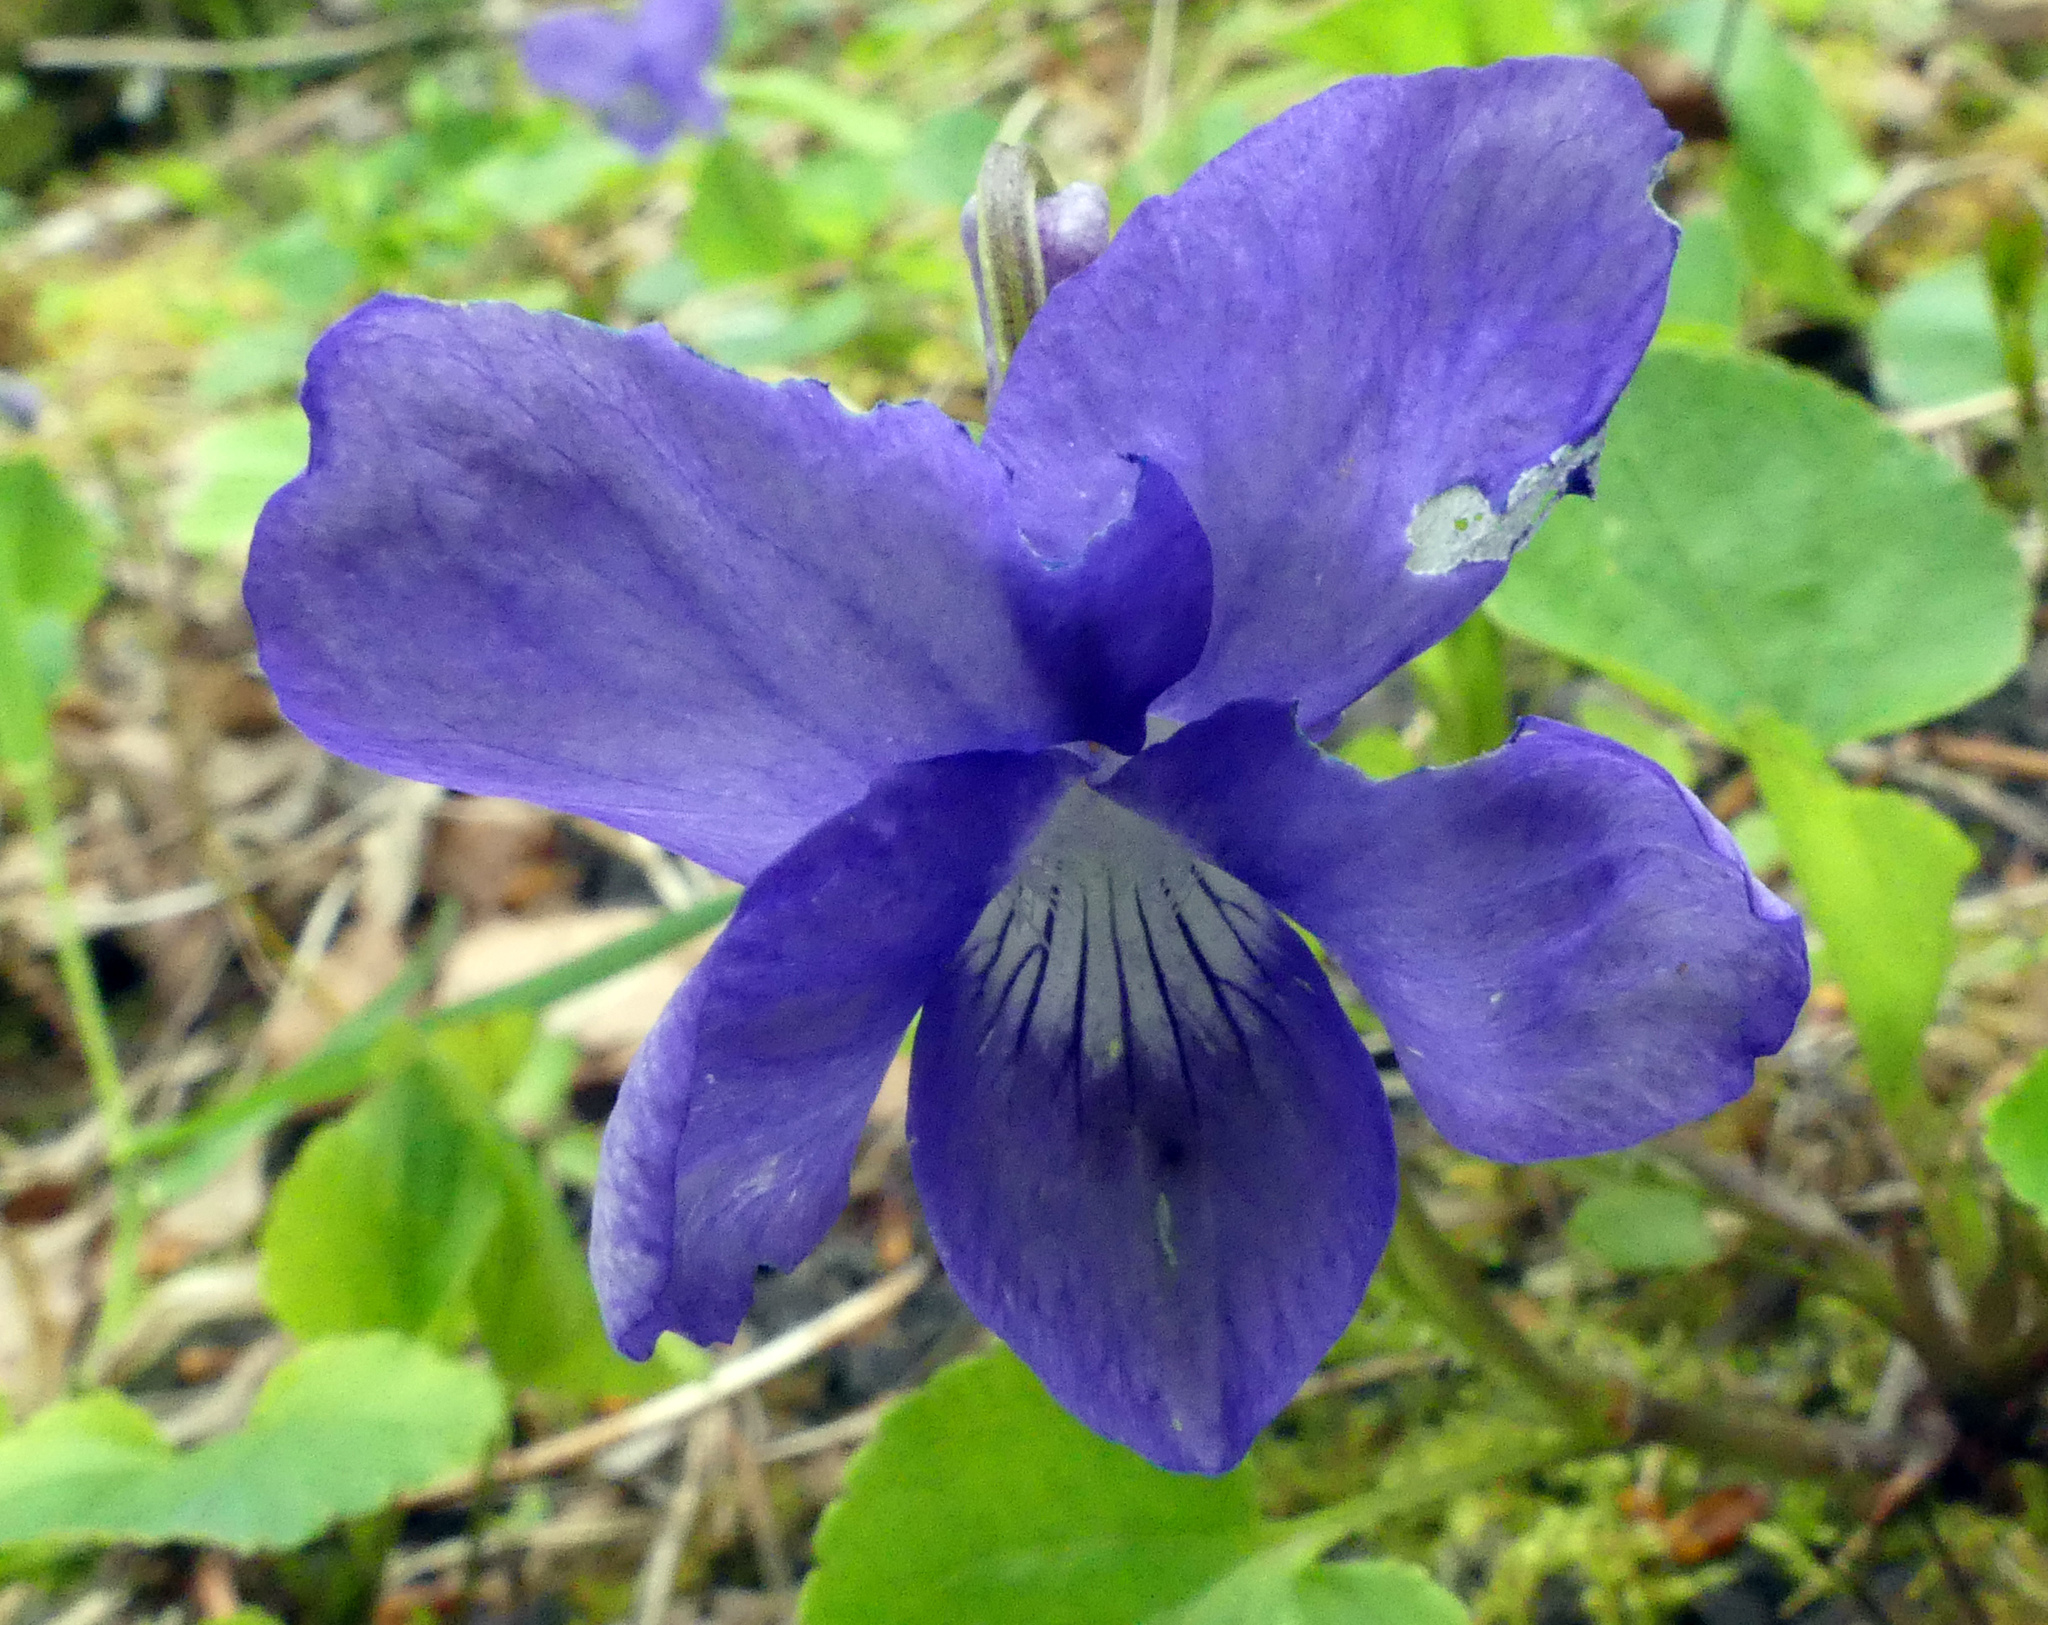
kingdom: Plantae
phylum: Tracheophyta
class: Magnoliopsida
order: Malpighiales
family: Violaceae
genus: Viola
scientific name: Viola riviniana
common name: Common dog-violet
